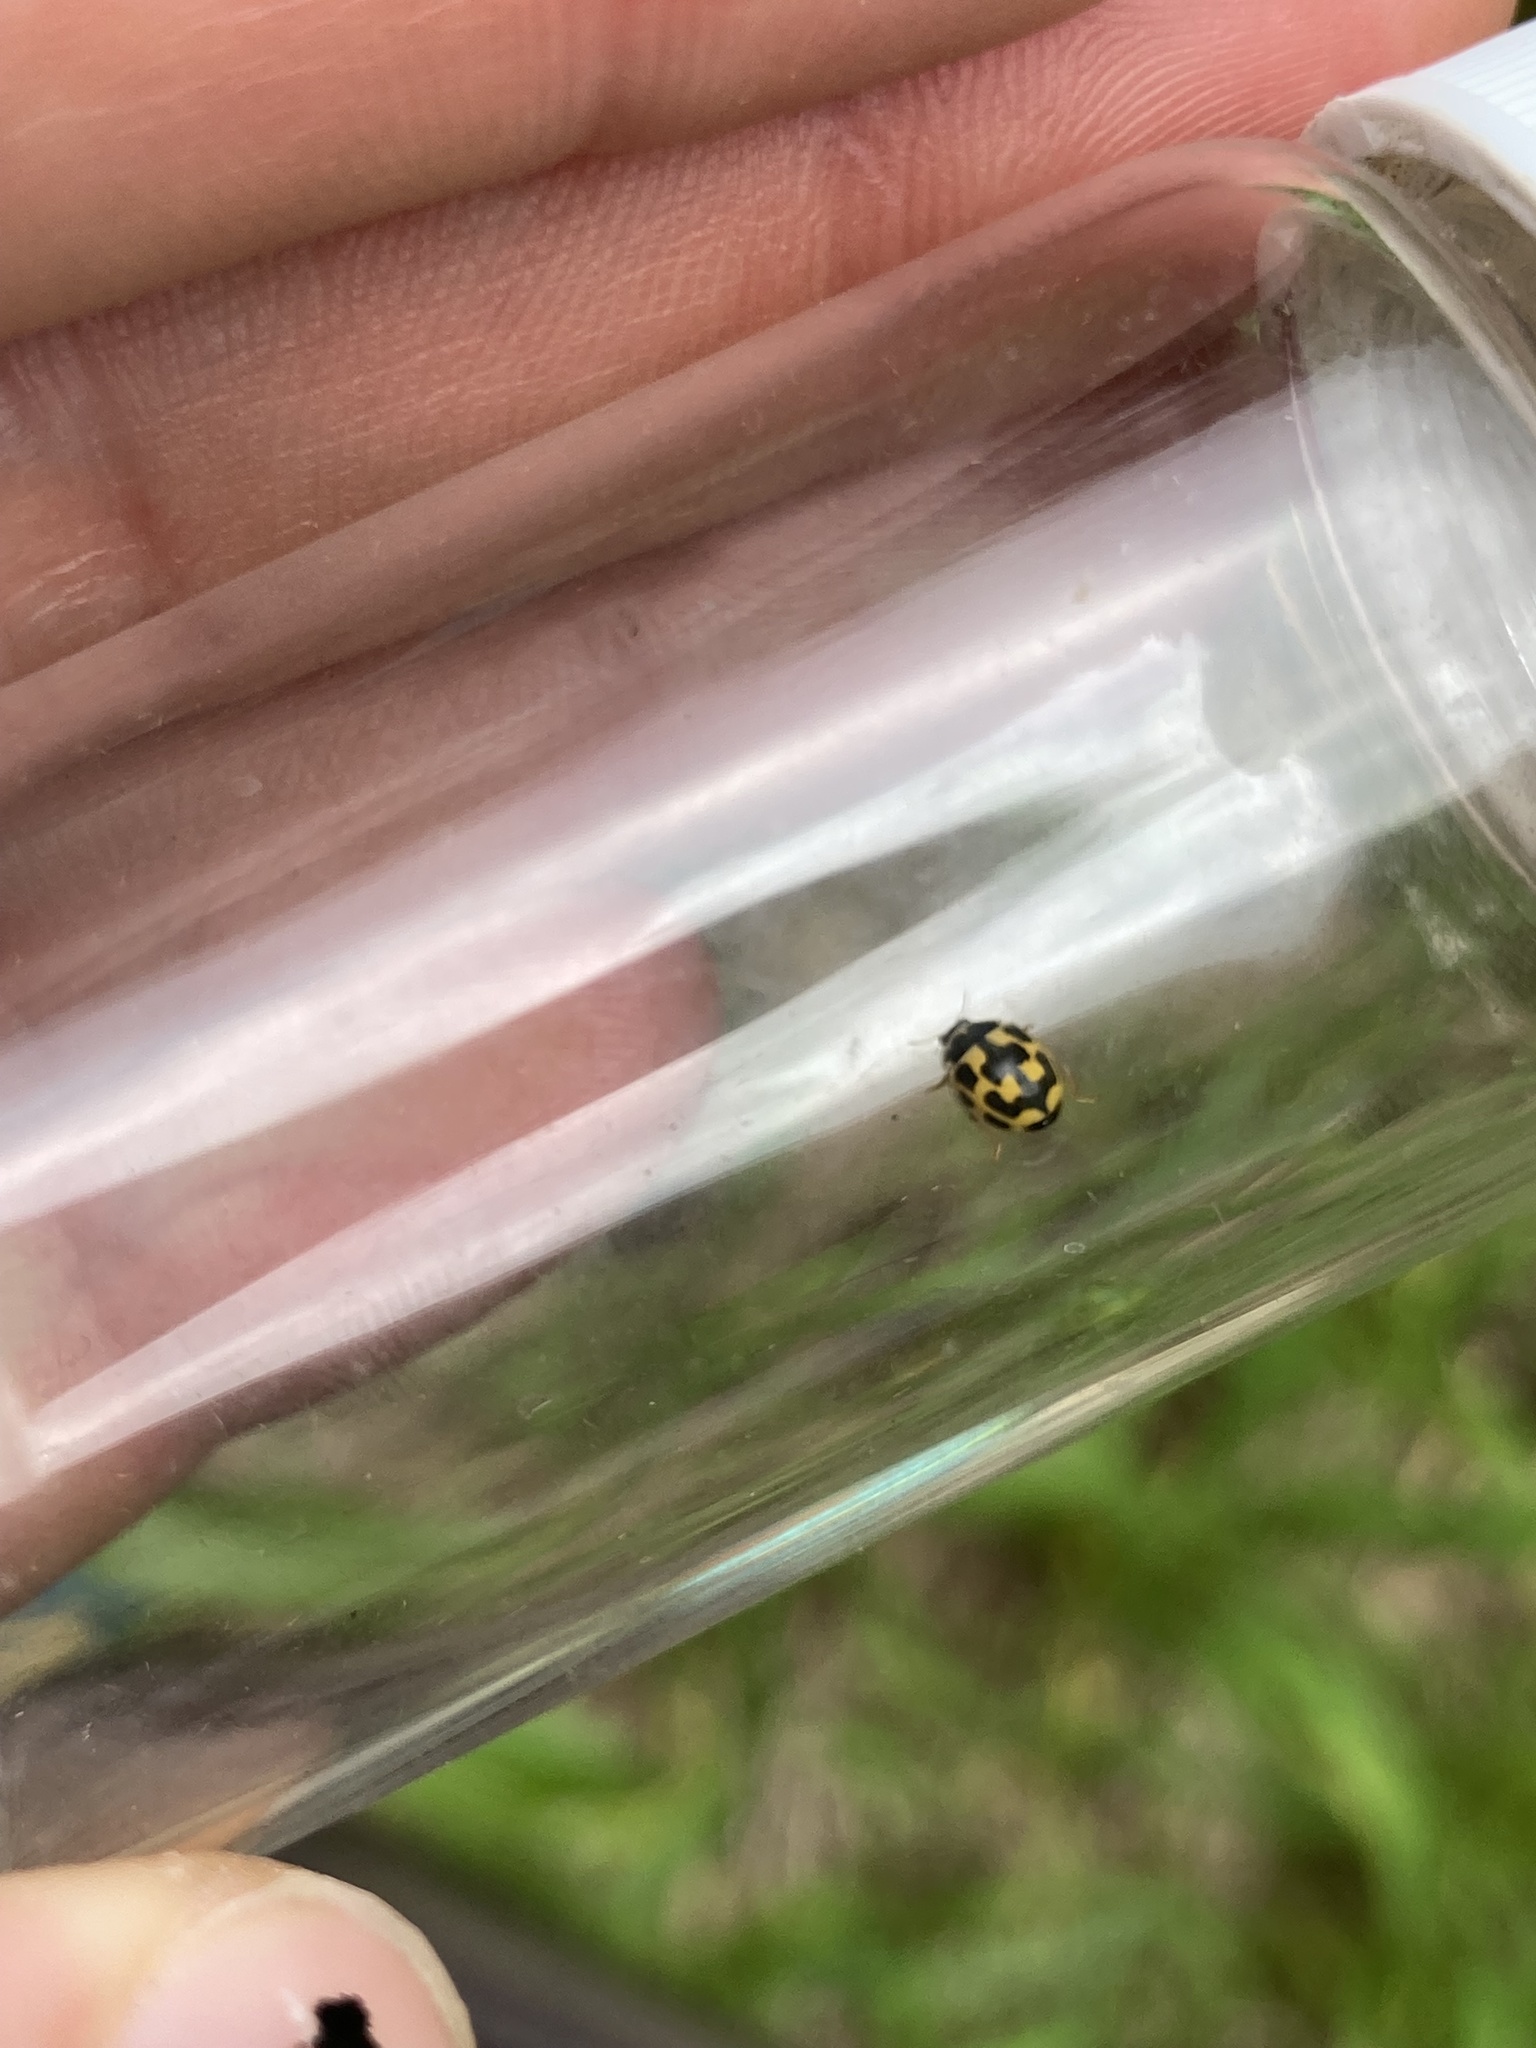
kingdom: Animalia
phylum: Arthropoda
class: Insecta
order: Coleoptera
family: Coccinellidae
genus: Propylaea
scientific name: Propylaea quatuordecimpunctata
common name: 14-spotted ladybird beetle
